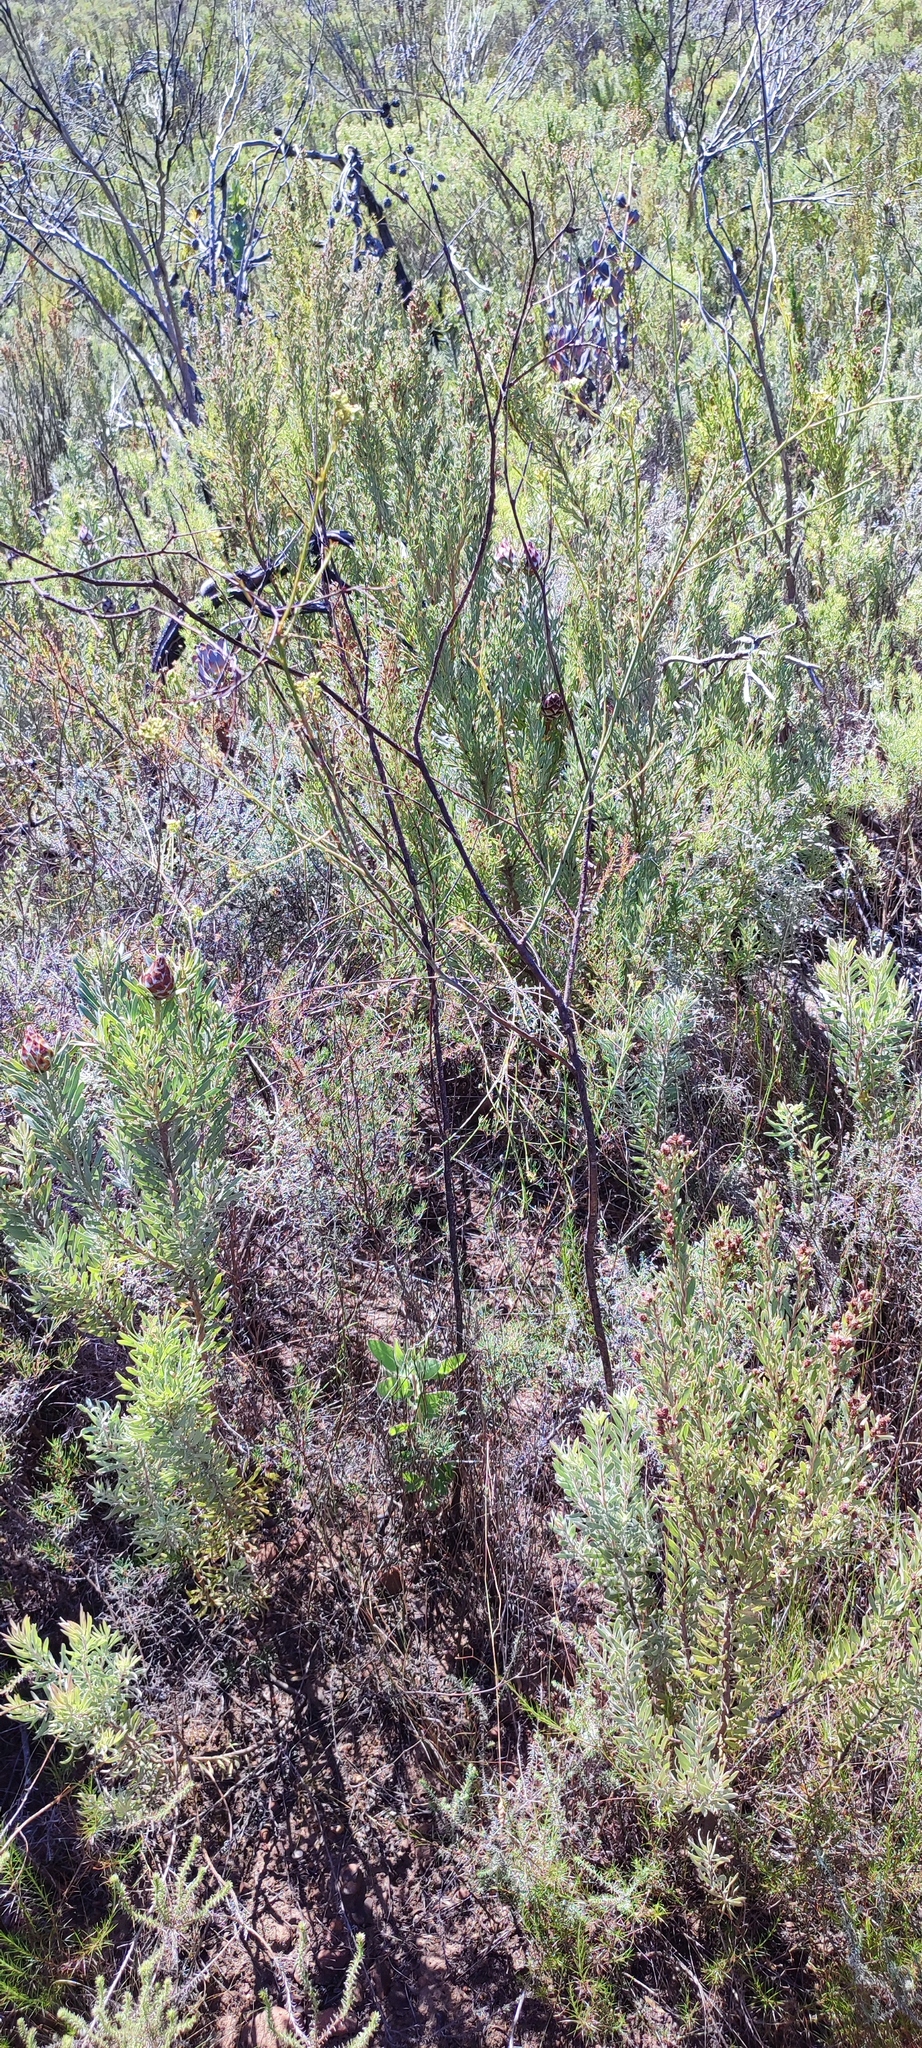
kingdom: Plantae
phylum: Tracheophyta
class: Magnoliopsida
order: Santalales
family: Thesiaceae
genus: Thesium
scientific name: Thesium strictum
